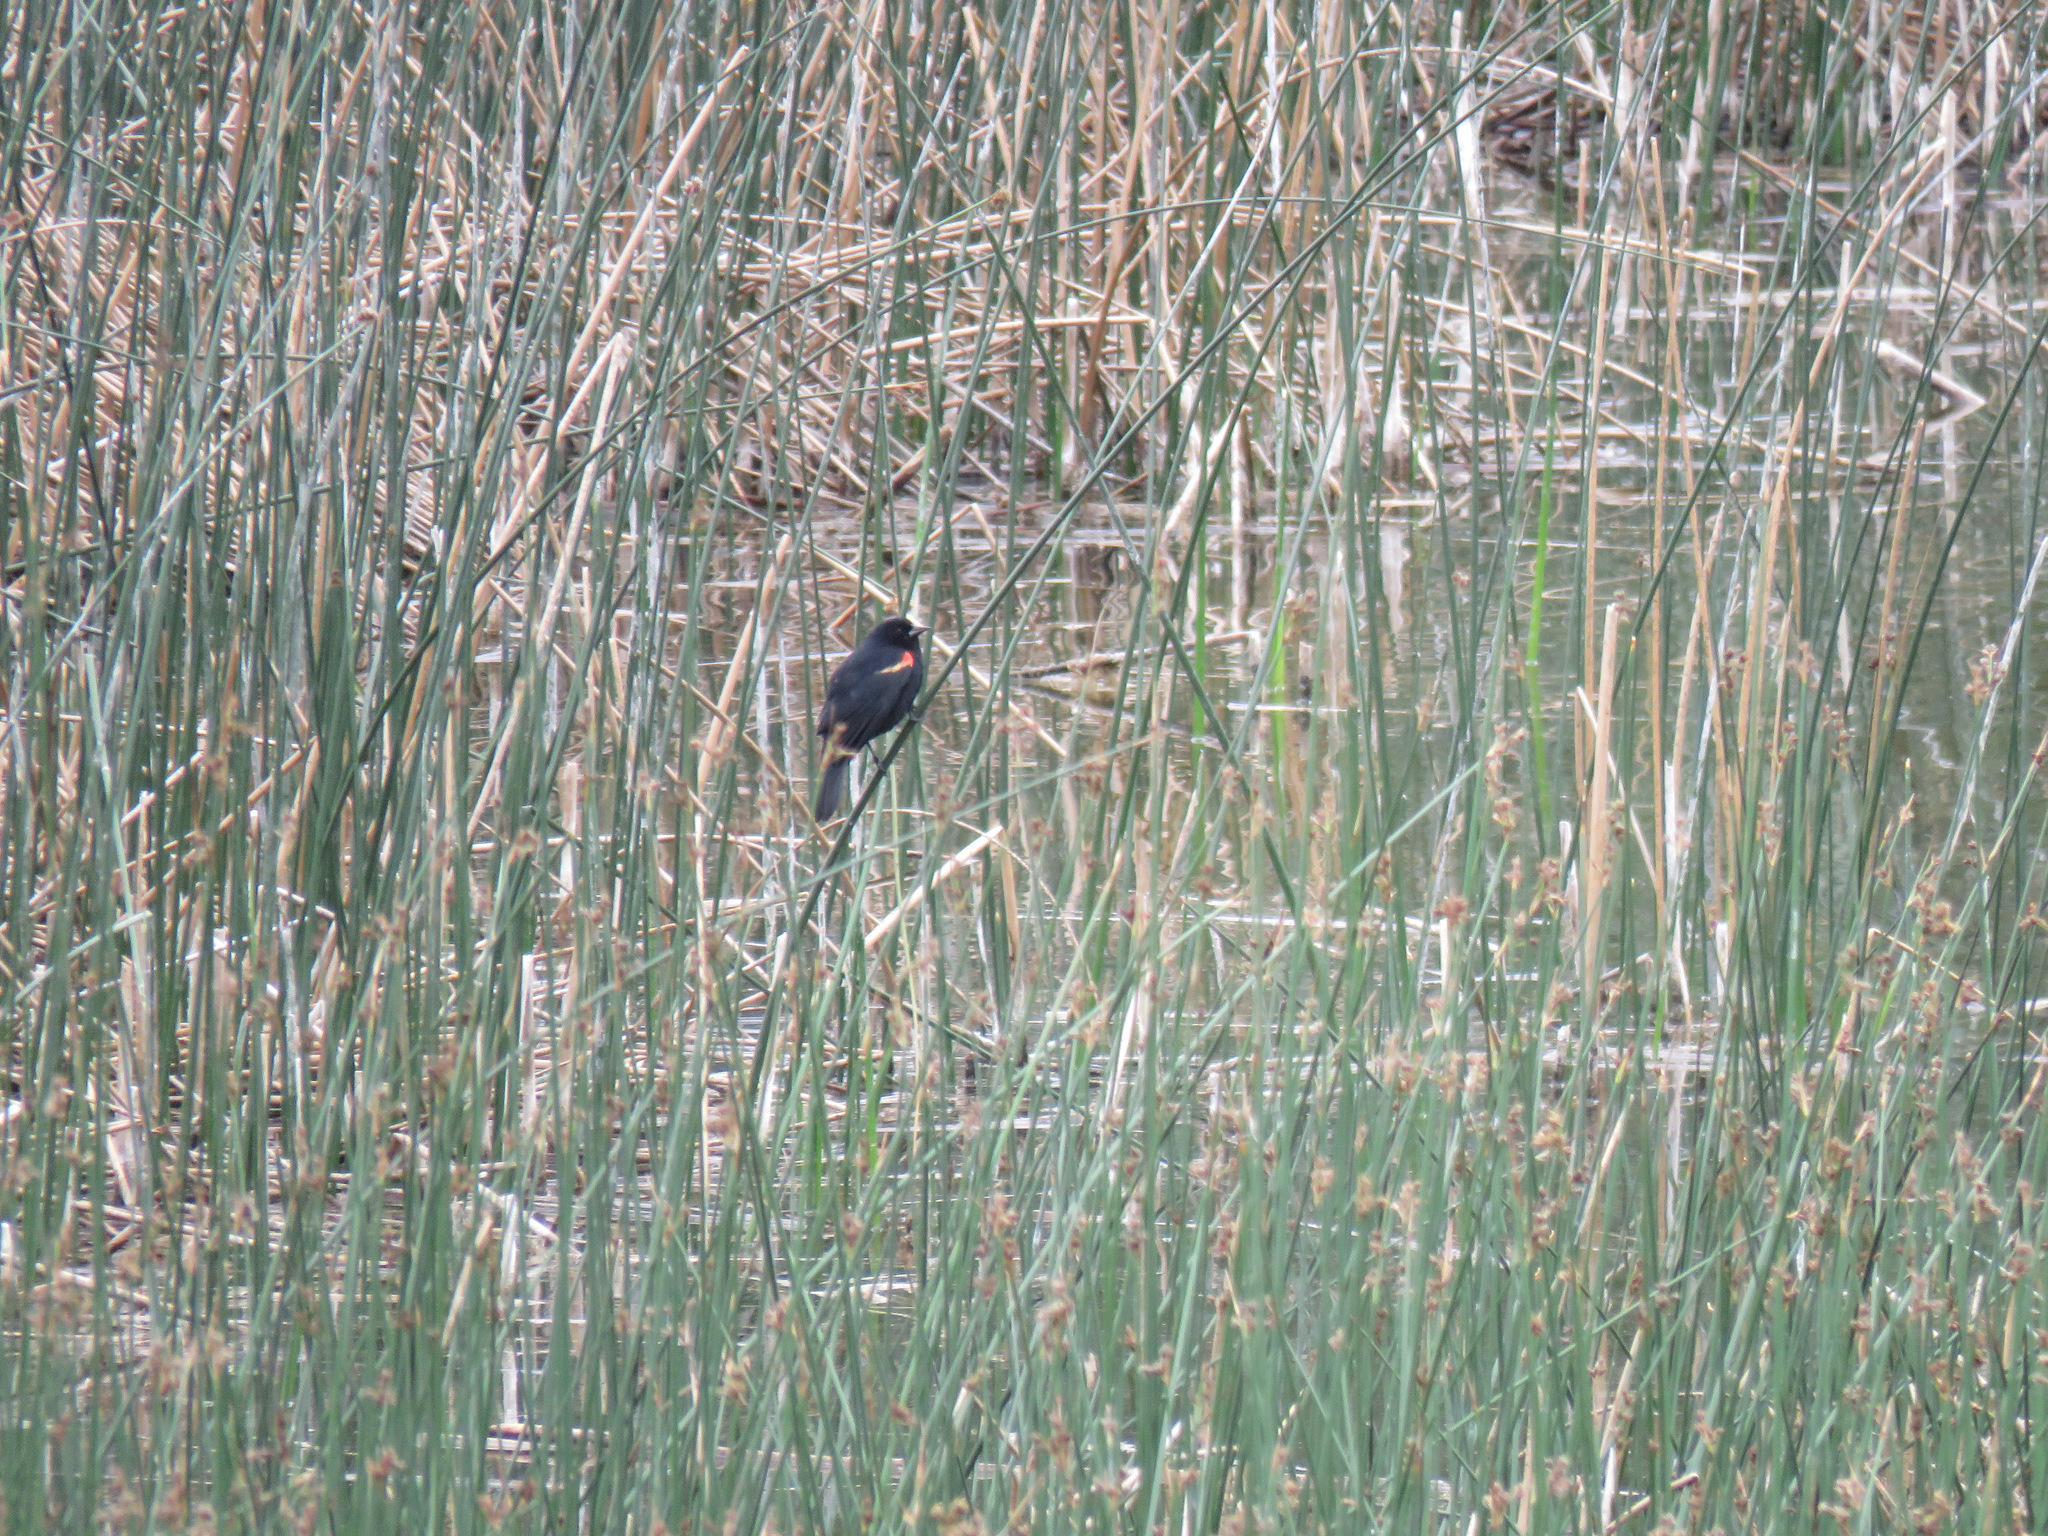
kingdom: Animalia
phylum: Chordata
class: Aves
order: Passeriformes
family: Icteridae
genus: Agelaius
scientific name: Agelaius phoeniceus
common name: Red-winged blackbird
